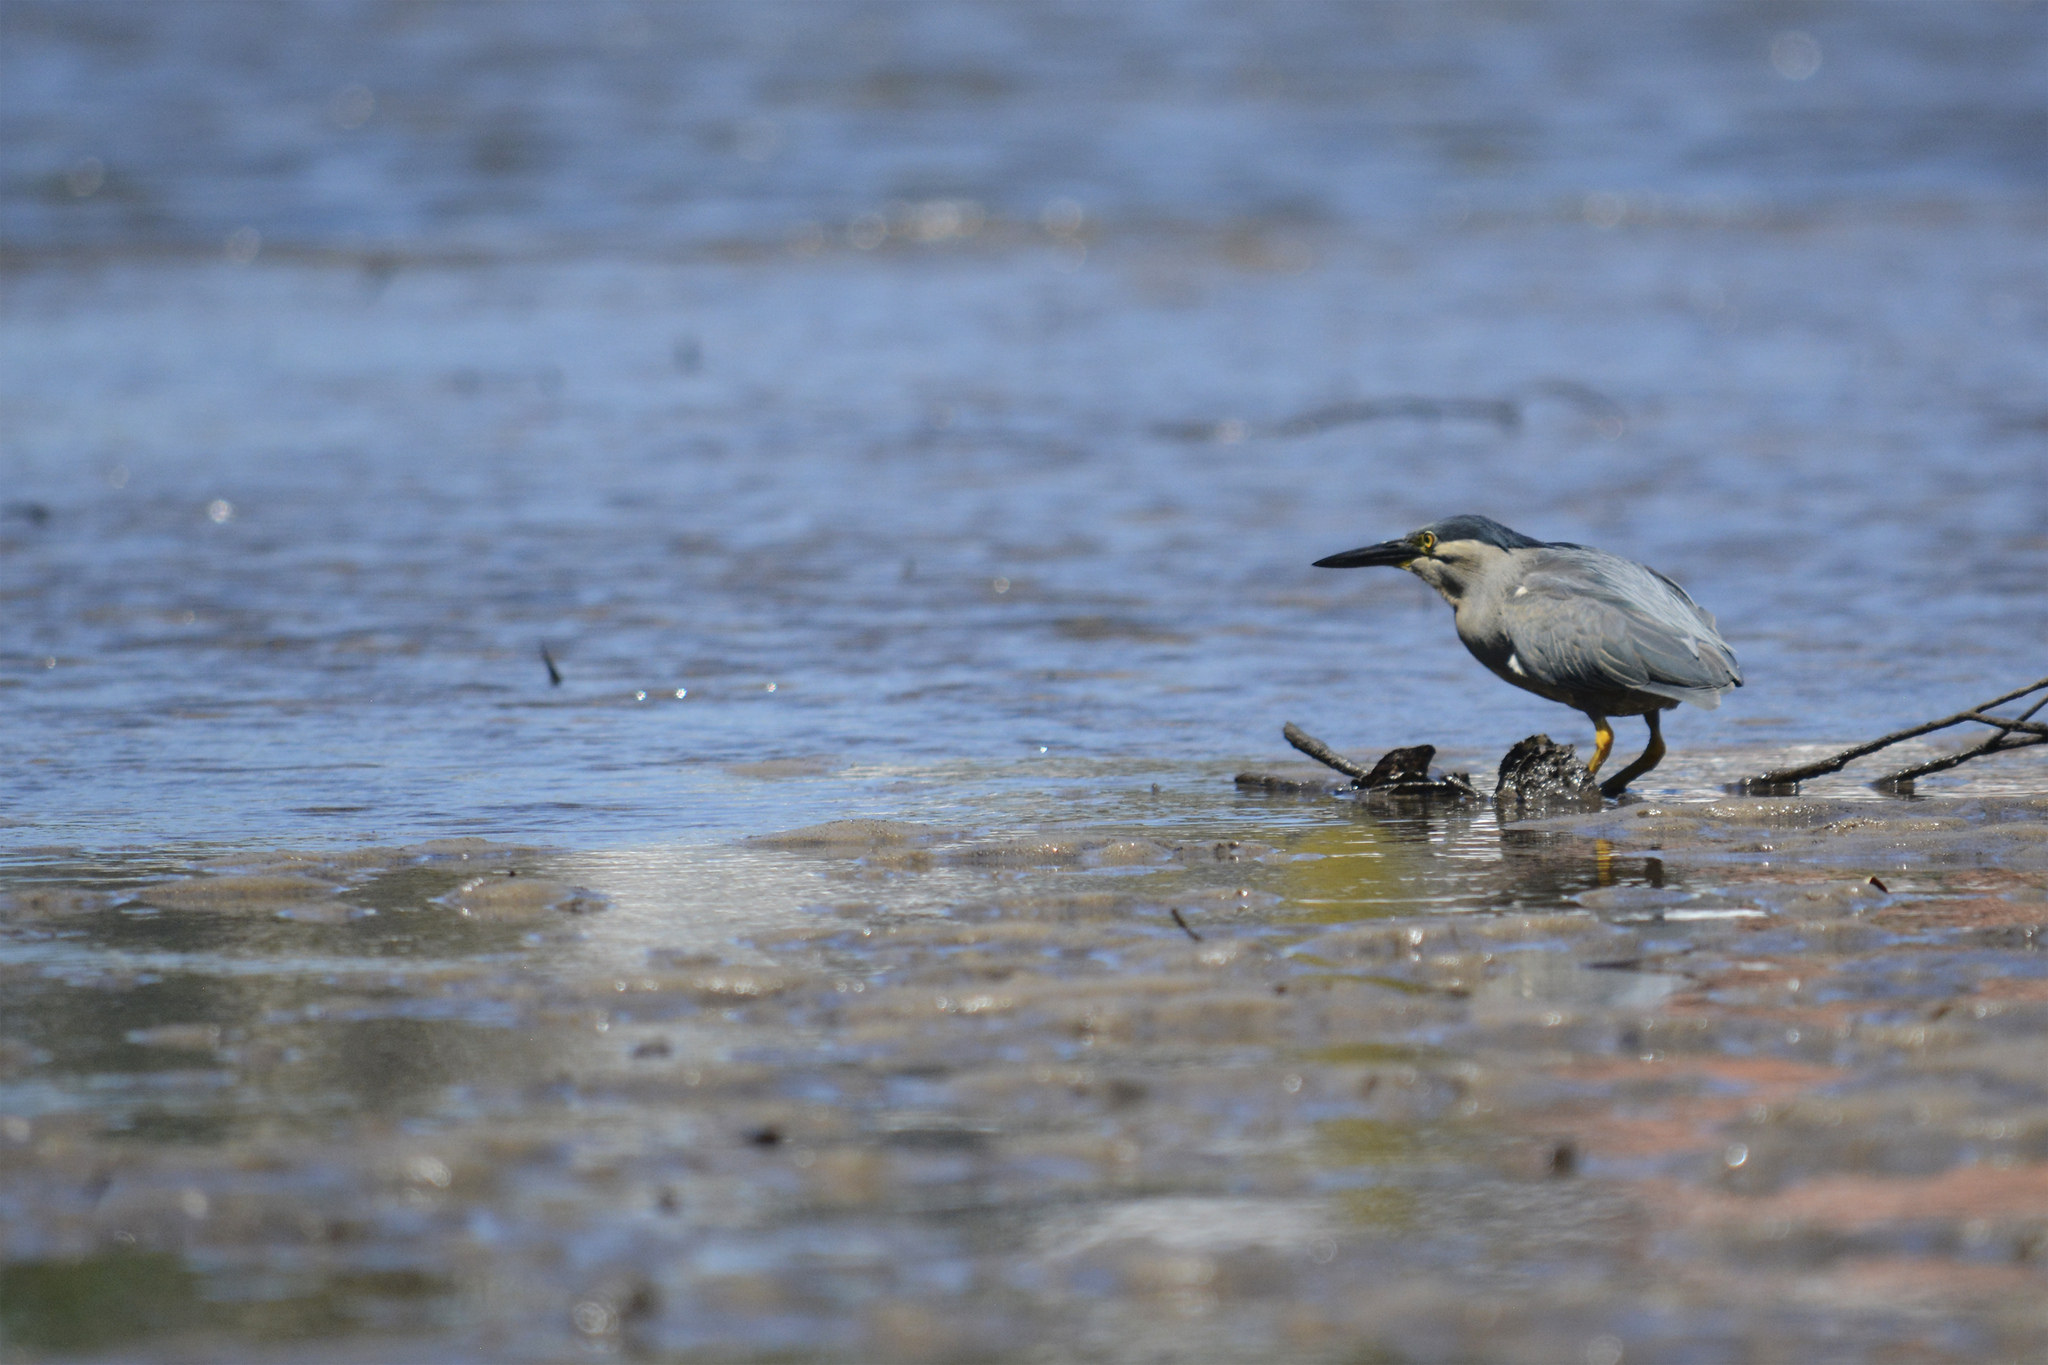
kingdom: Animalia
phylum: Chordata
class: Aves
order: Pelecaniformes
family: Ardeidae
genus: Butorides
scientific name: Butorides striata
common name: Striated heron
